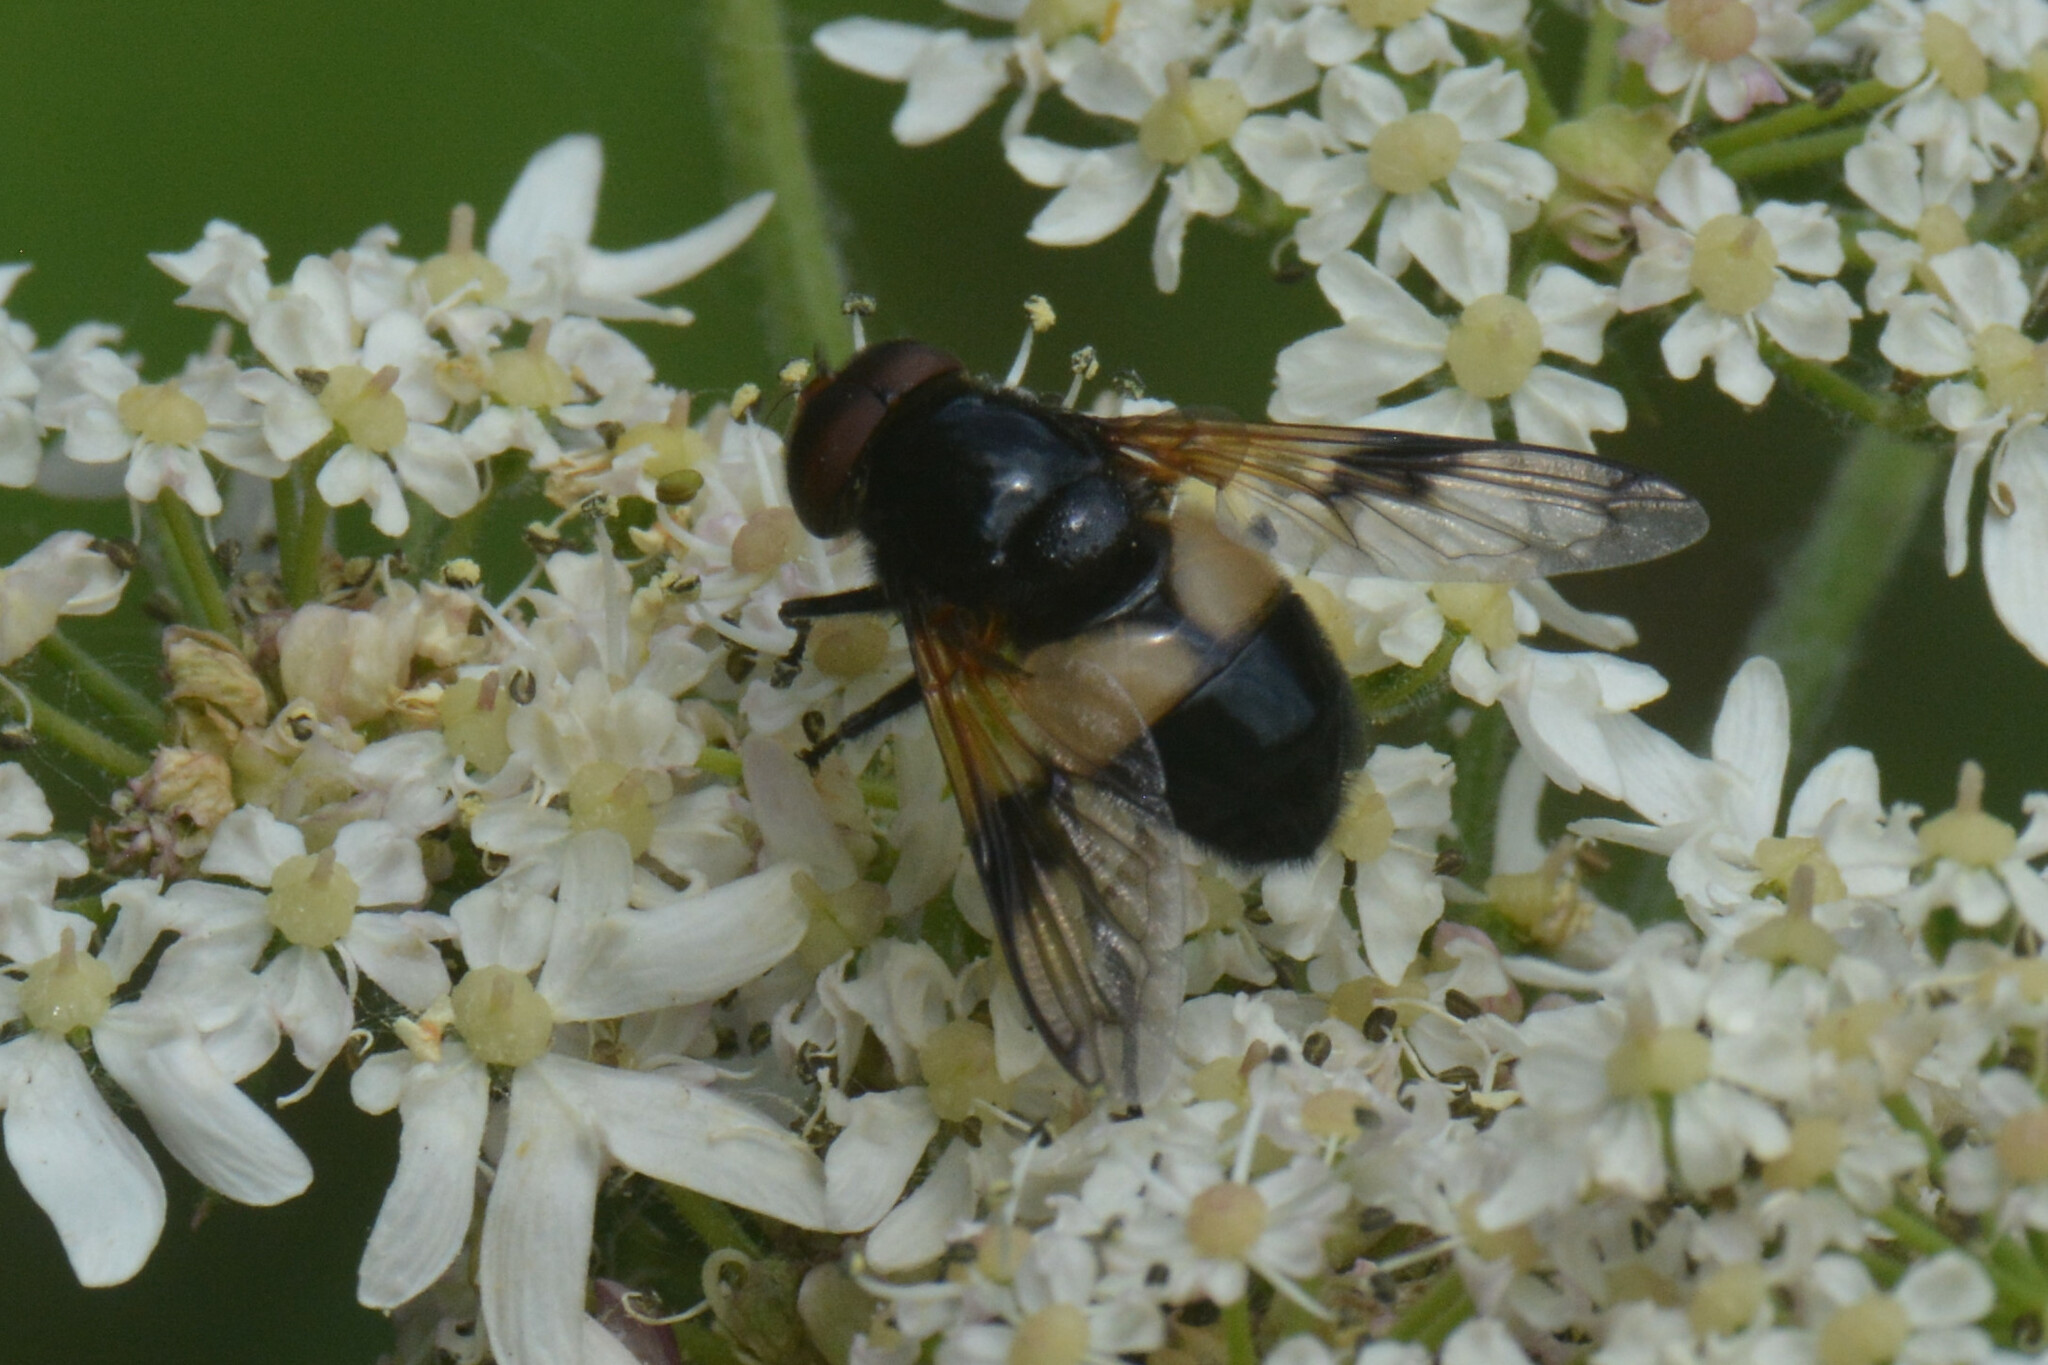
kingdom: Animalia
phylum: Arthropoda
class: Insecta
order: Diptera
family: Syrphidae
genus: Volucella
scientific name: Volucella pellucens
